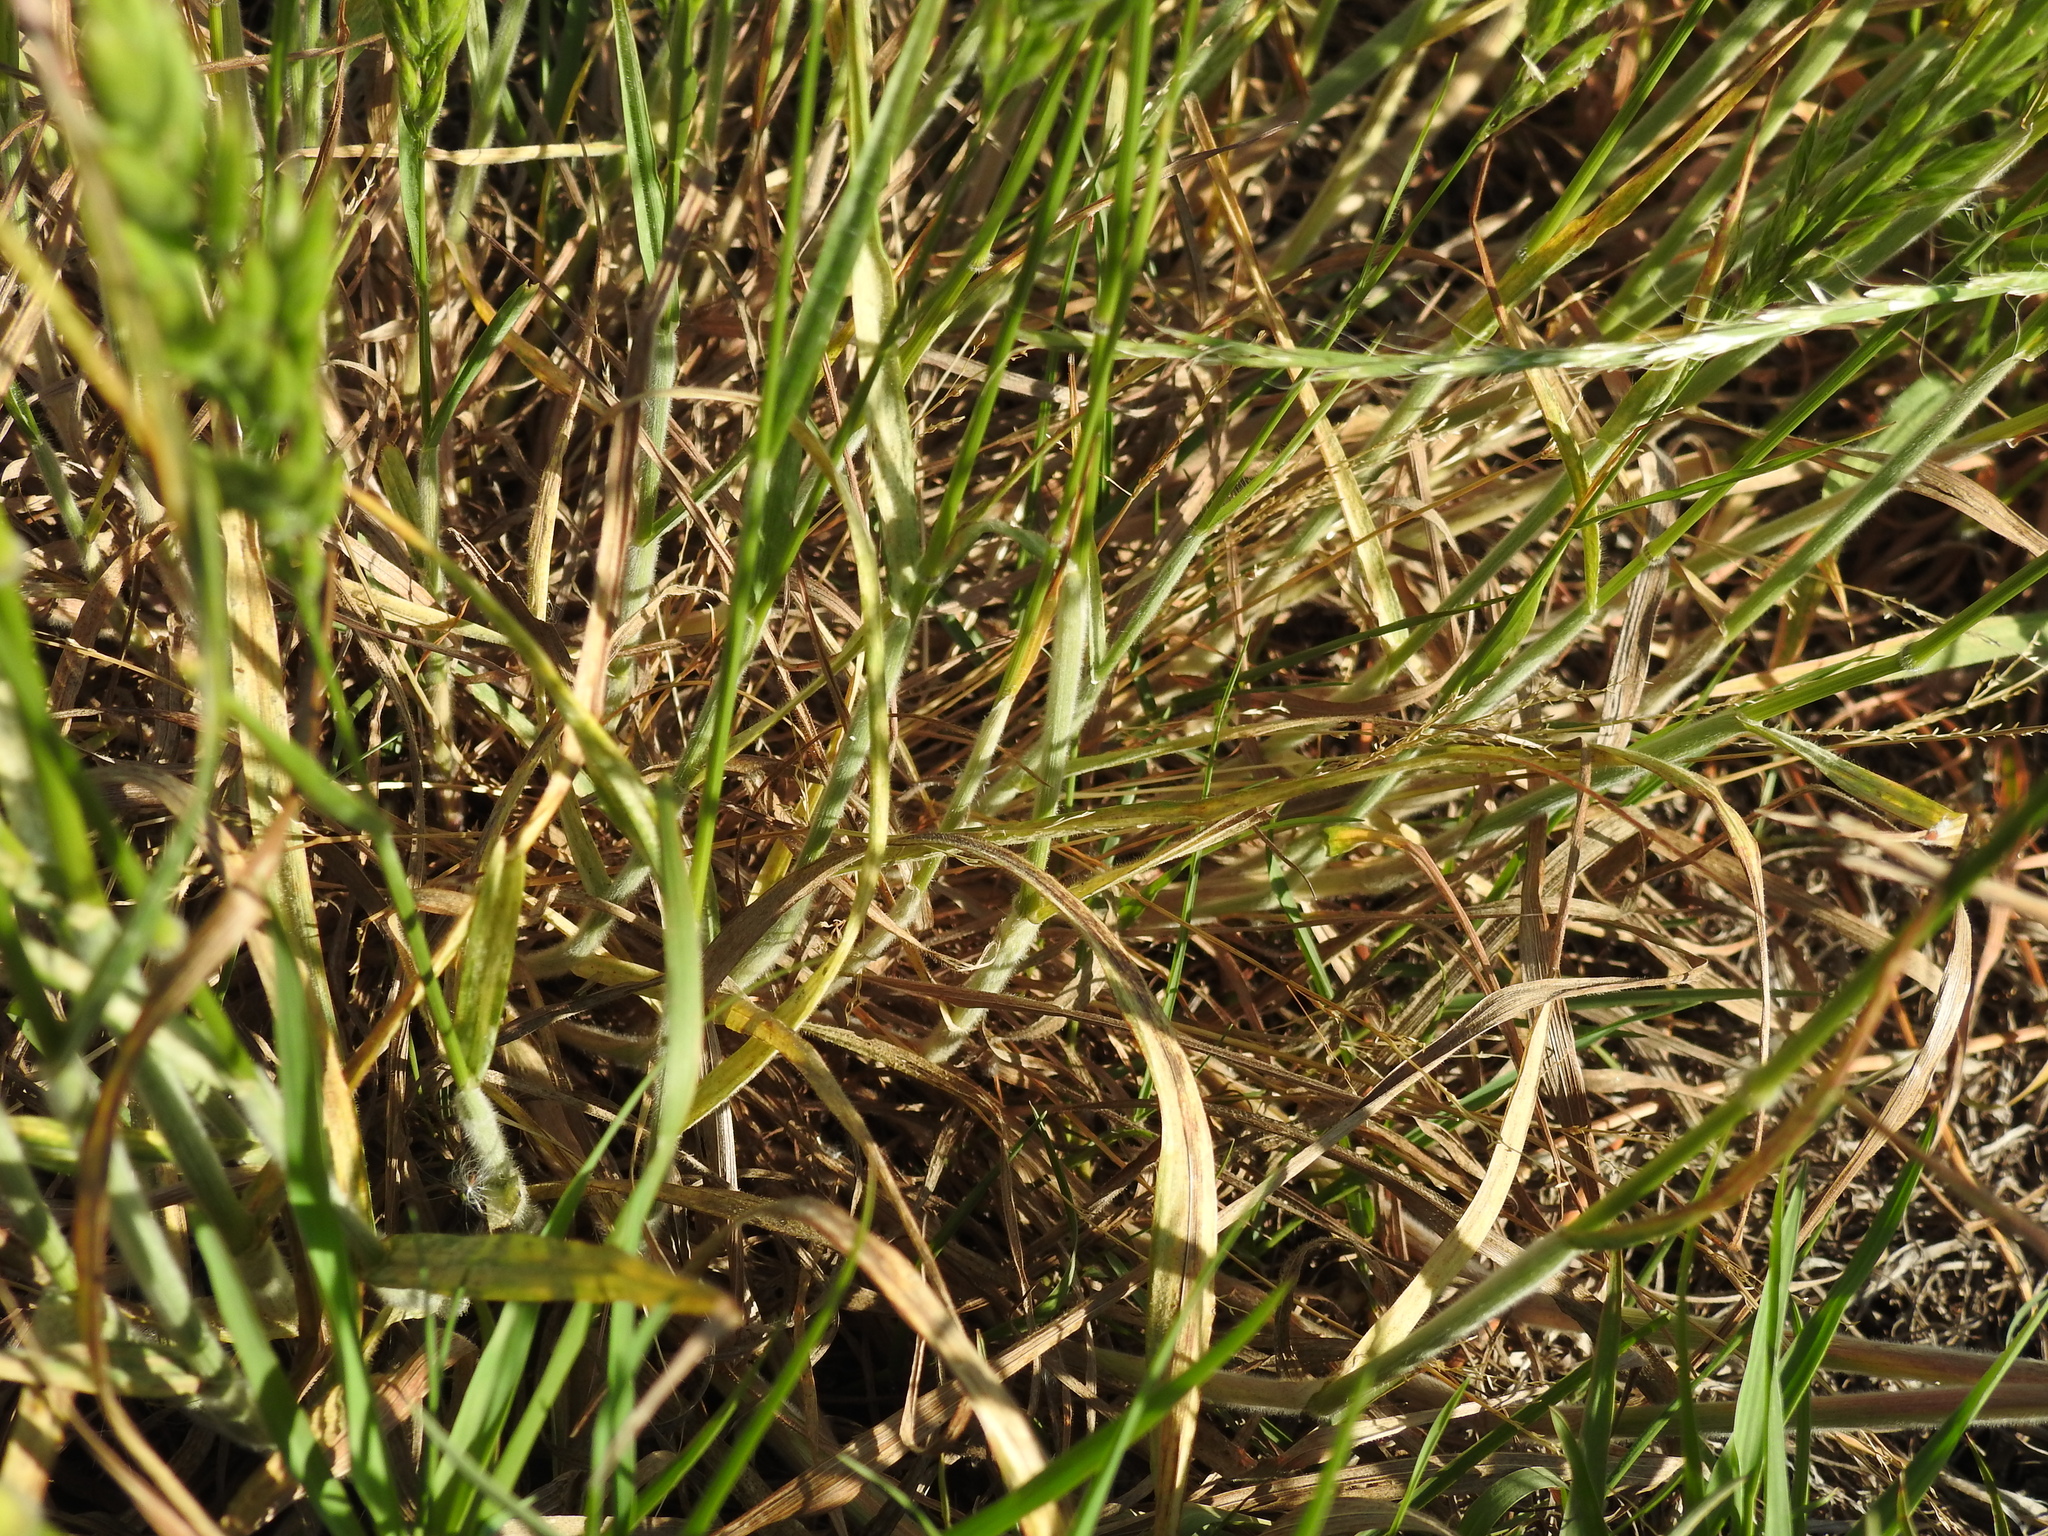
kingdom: Plantae
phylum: Tracheophyta
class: Liliopsida
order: Poales
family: Poaceae
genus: Bromus
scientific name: Bromus hordeaceus
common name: Soft brome
